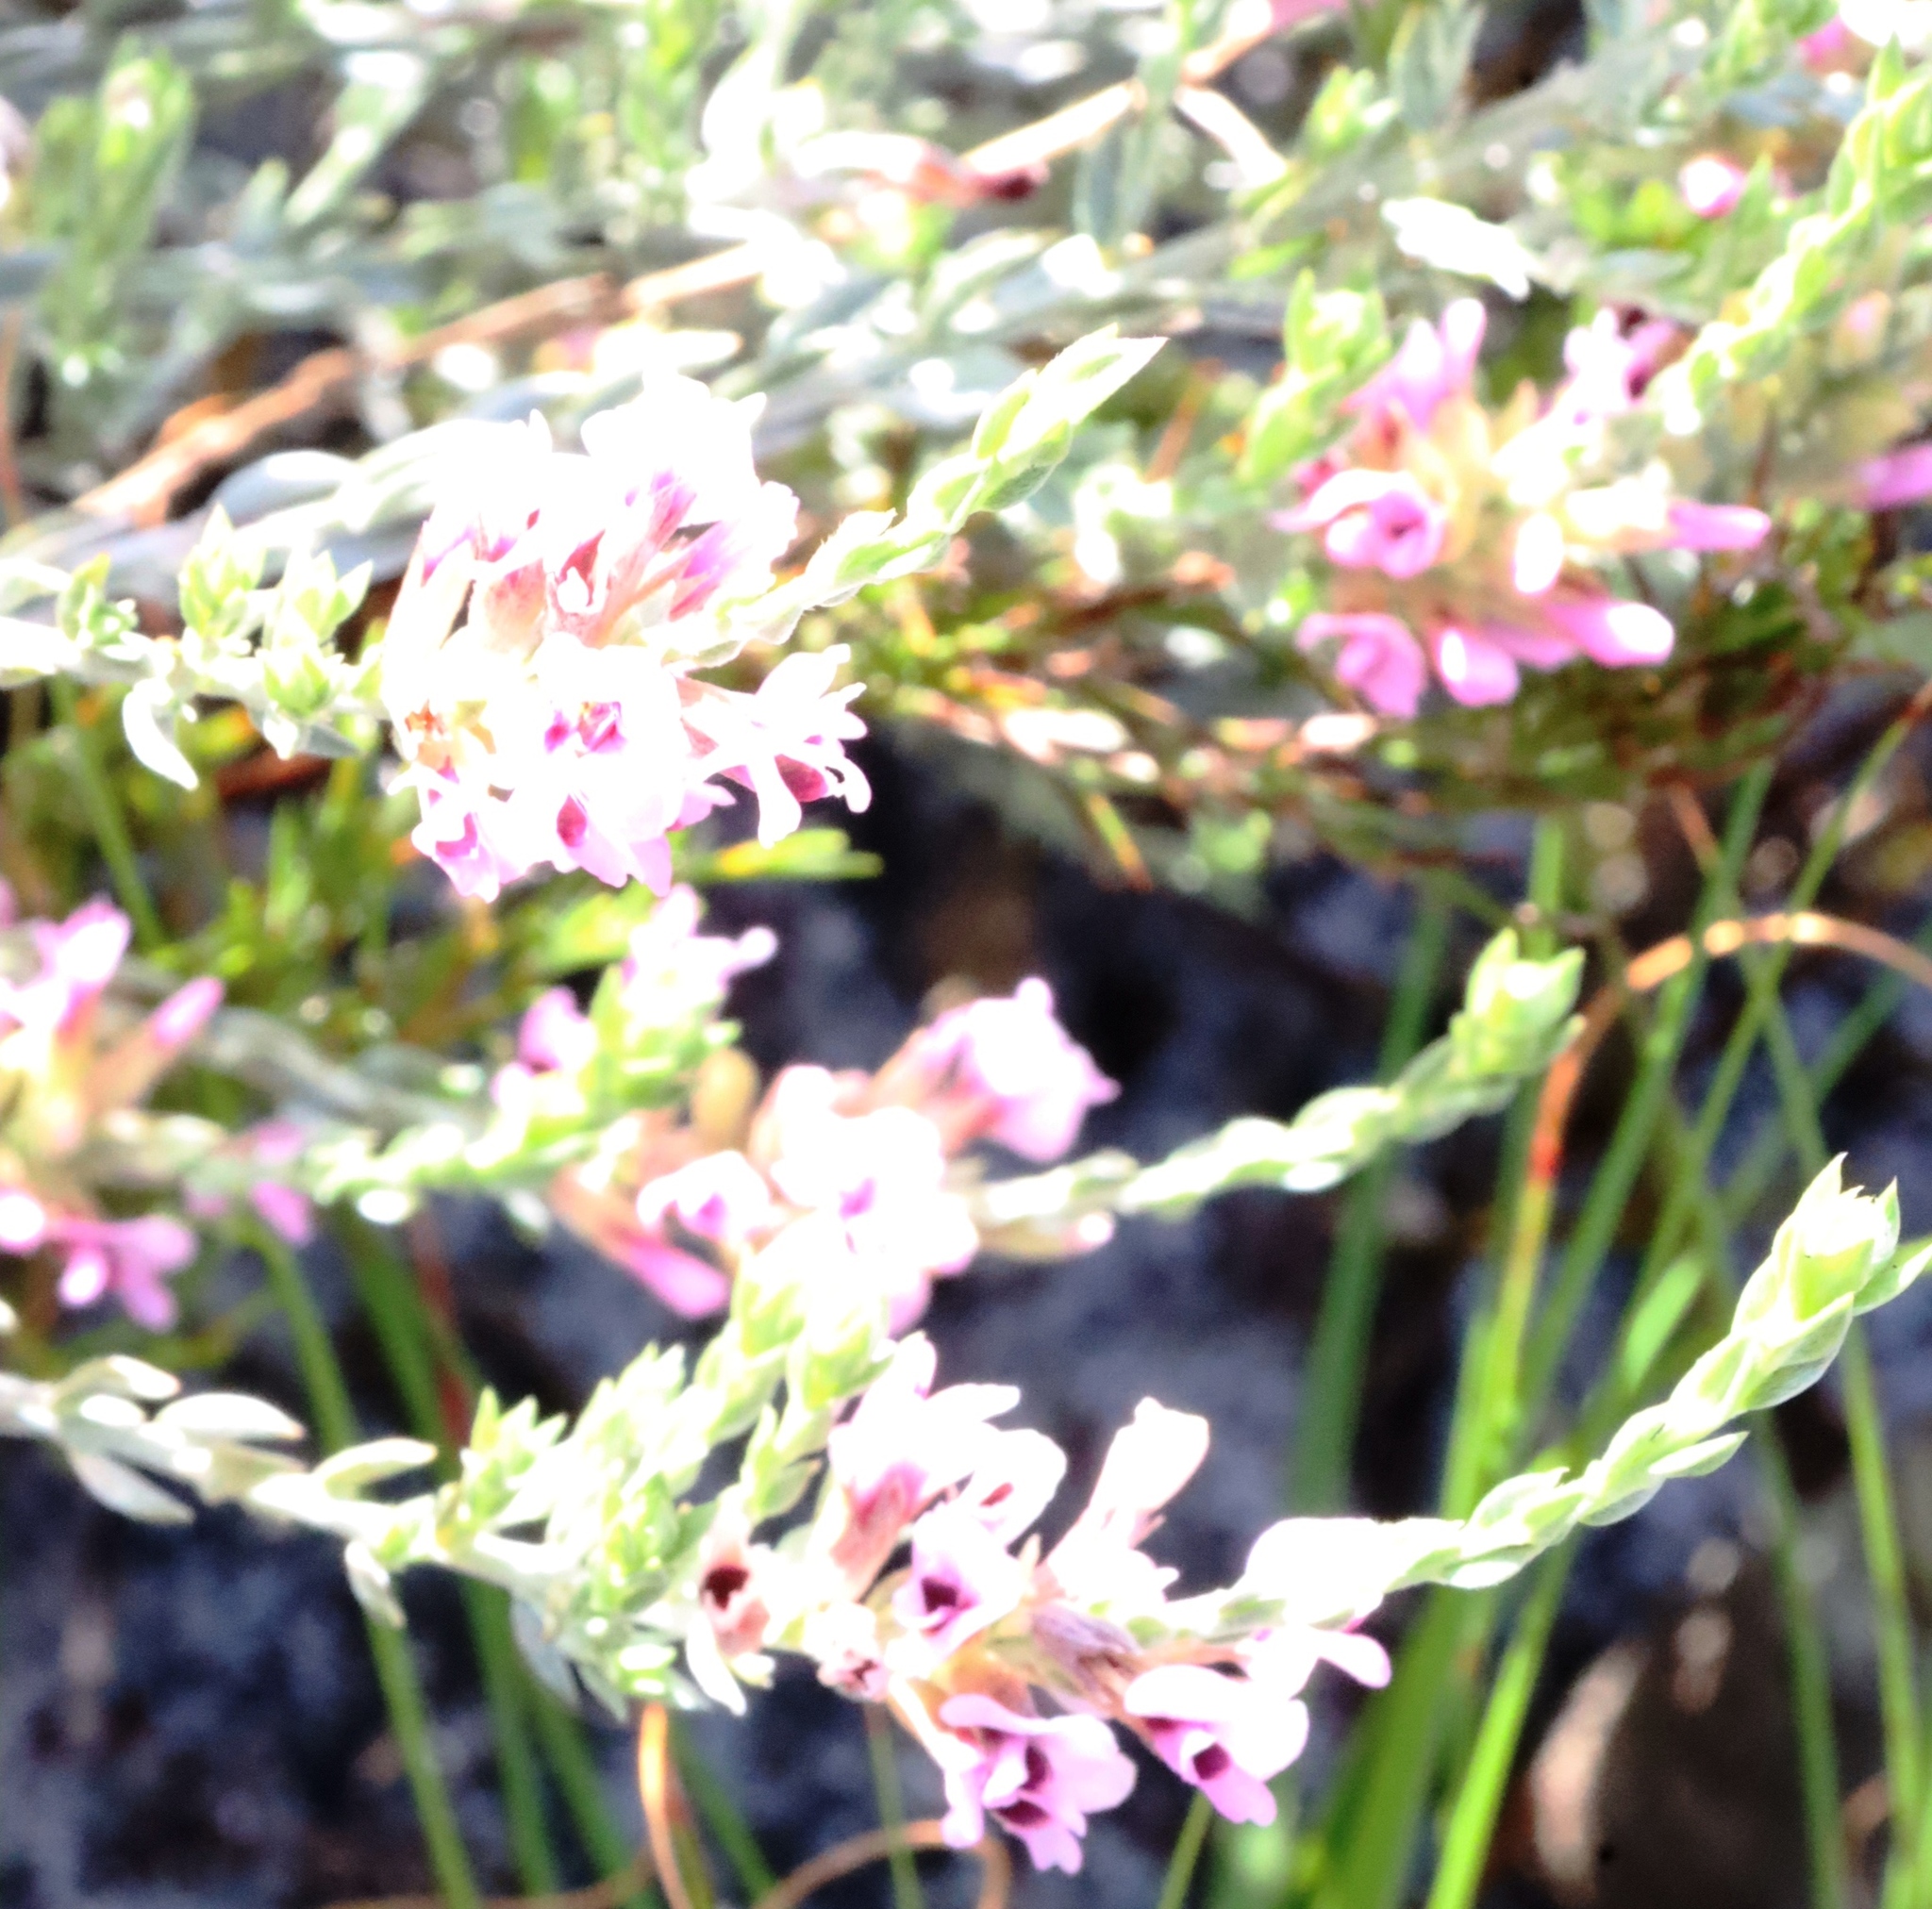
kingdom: Plantae
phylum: Tracheophyta
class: Magnoliopsida
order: Fabales
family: Fabaceae
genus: Amphithalea
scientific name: Amphithalea ericifolia
